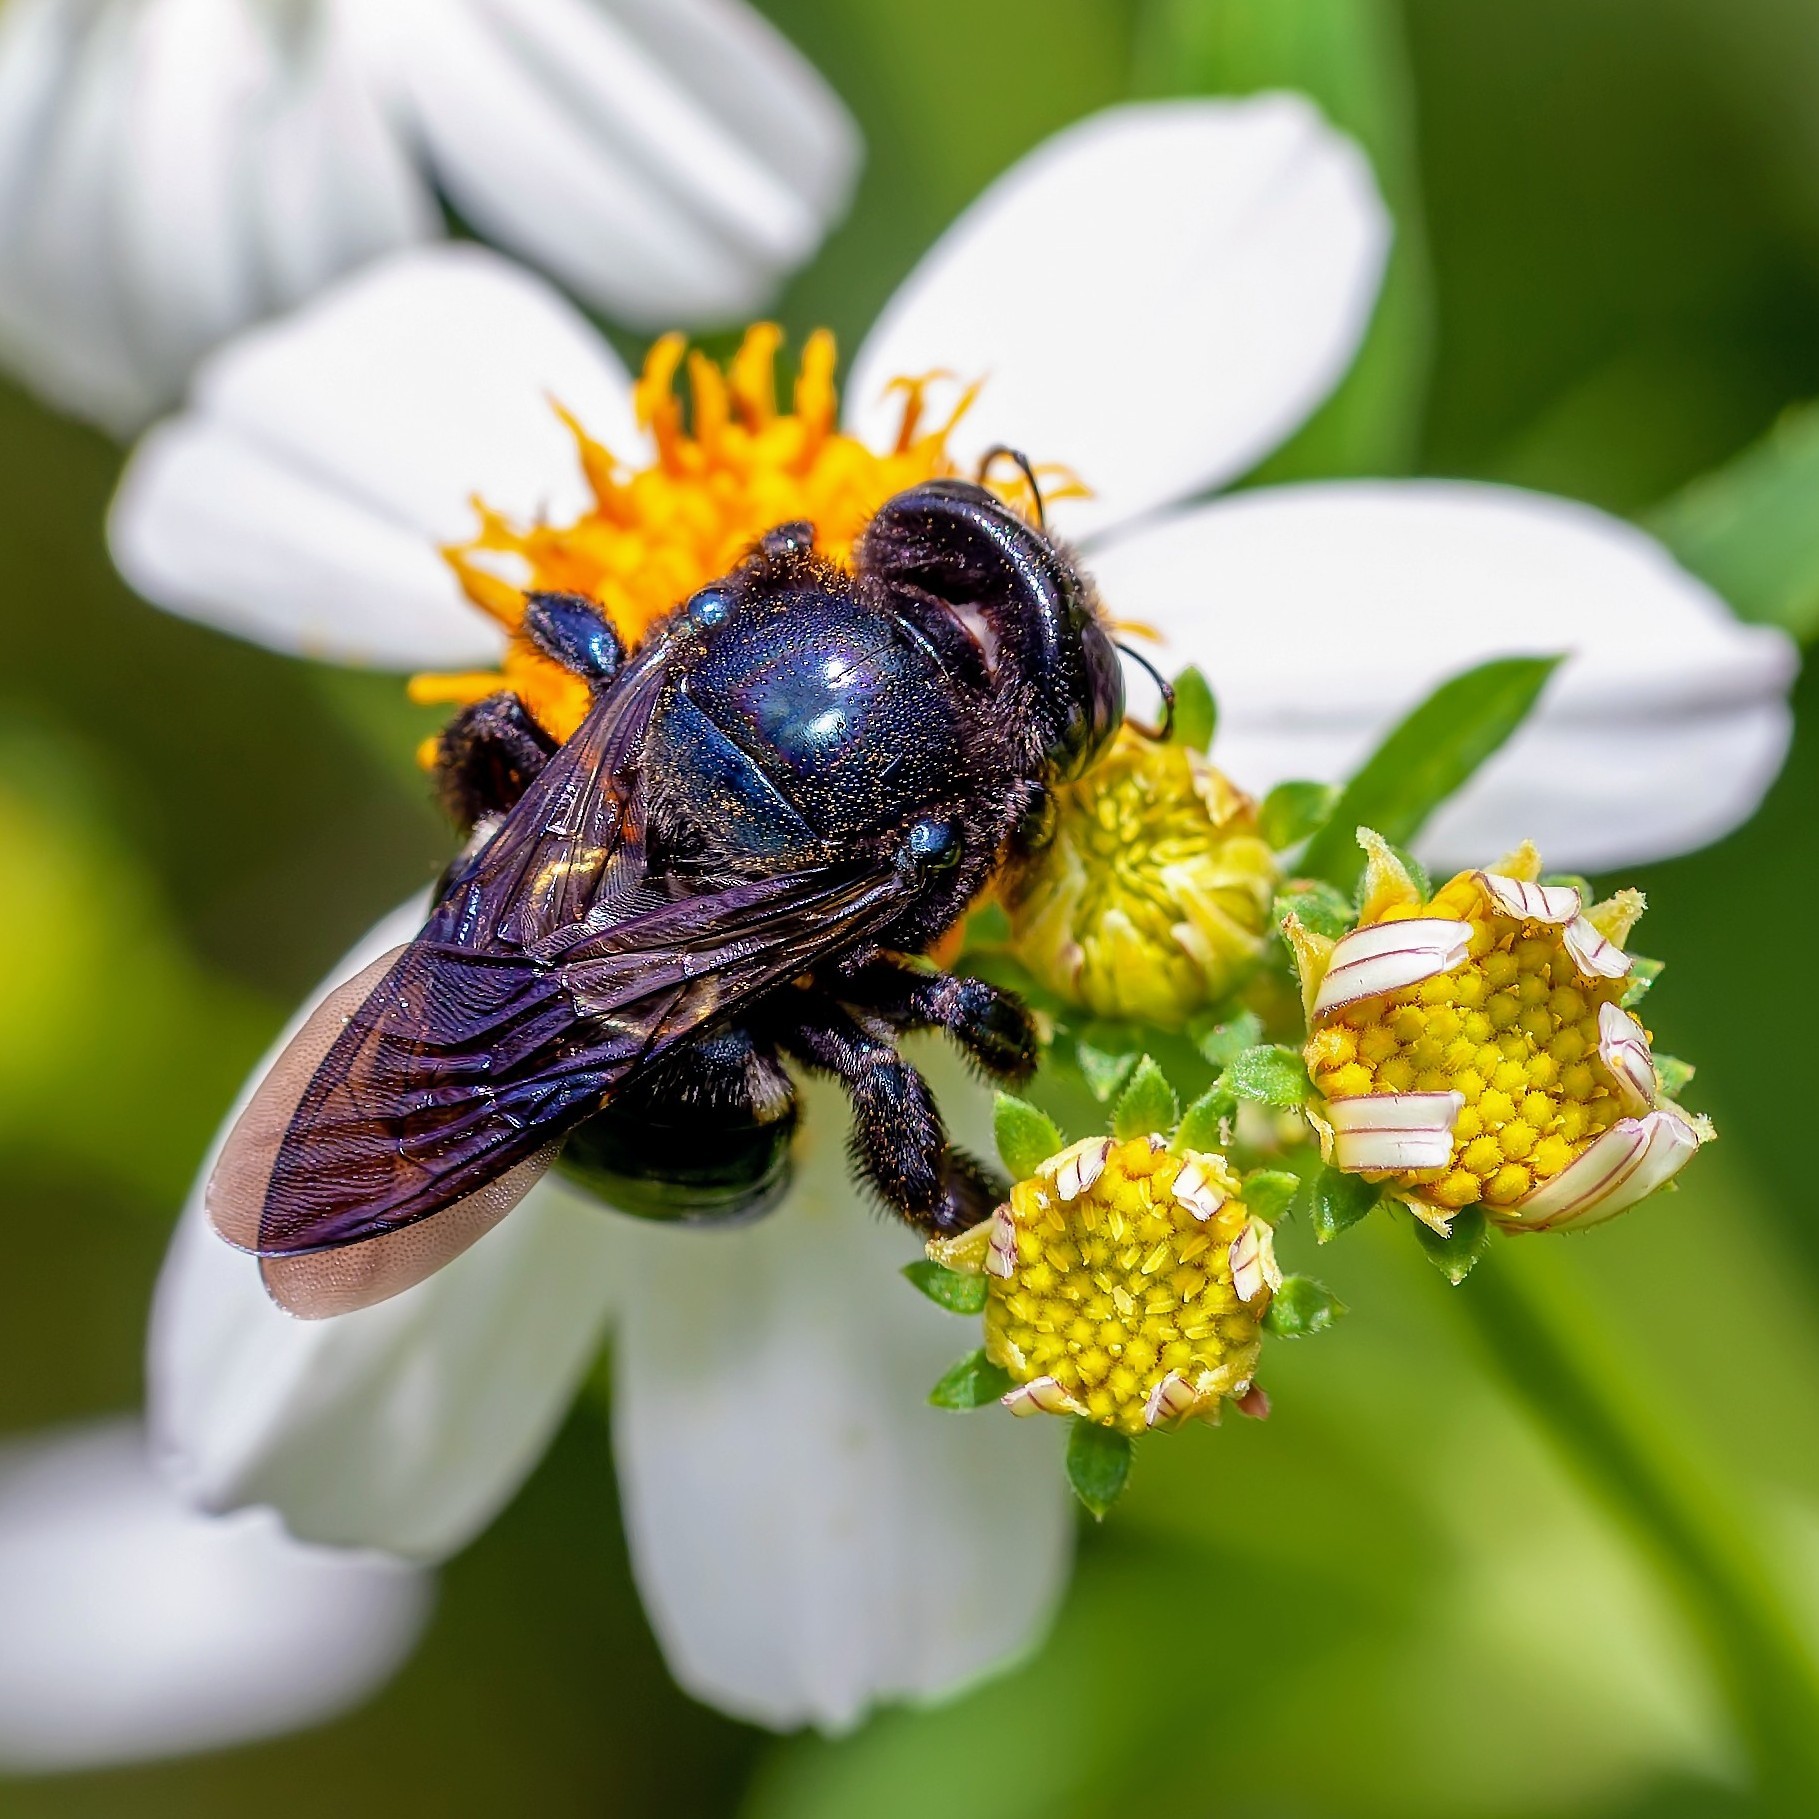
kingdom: Animalia
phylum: Arthropoda
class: Insecta
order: Hymenoptera
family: Apidae
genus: Xylocopa
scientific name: Xylocopa micans
